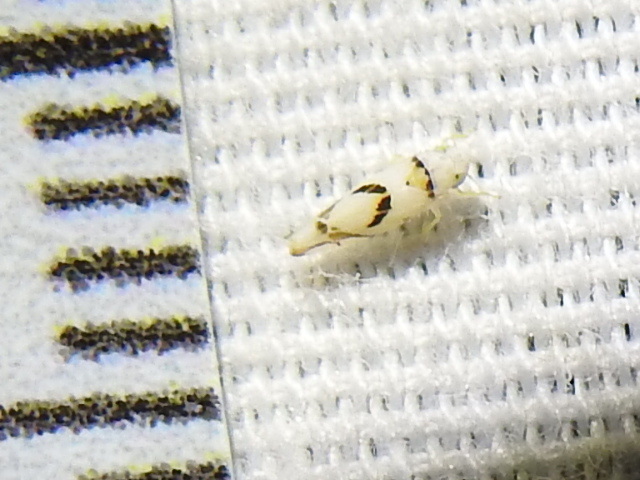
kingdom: Animalia
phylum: Arthropoda
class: Insecta
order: Hemiptera
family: Cicadellidae
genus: Eratoneura
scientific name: Eratoneura lunata
